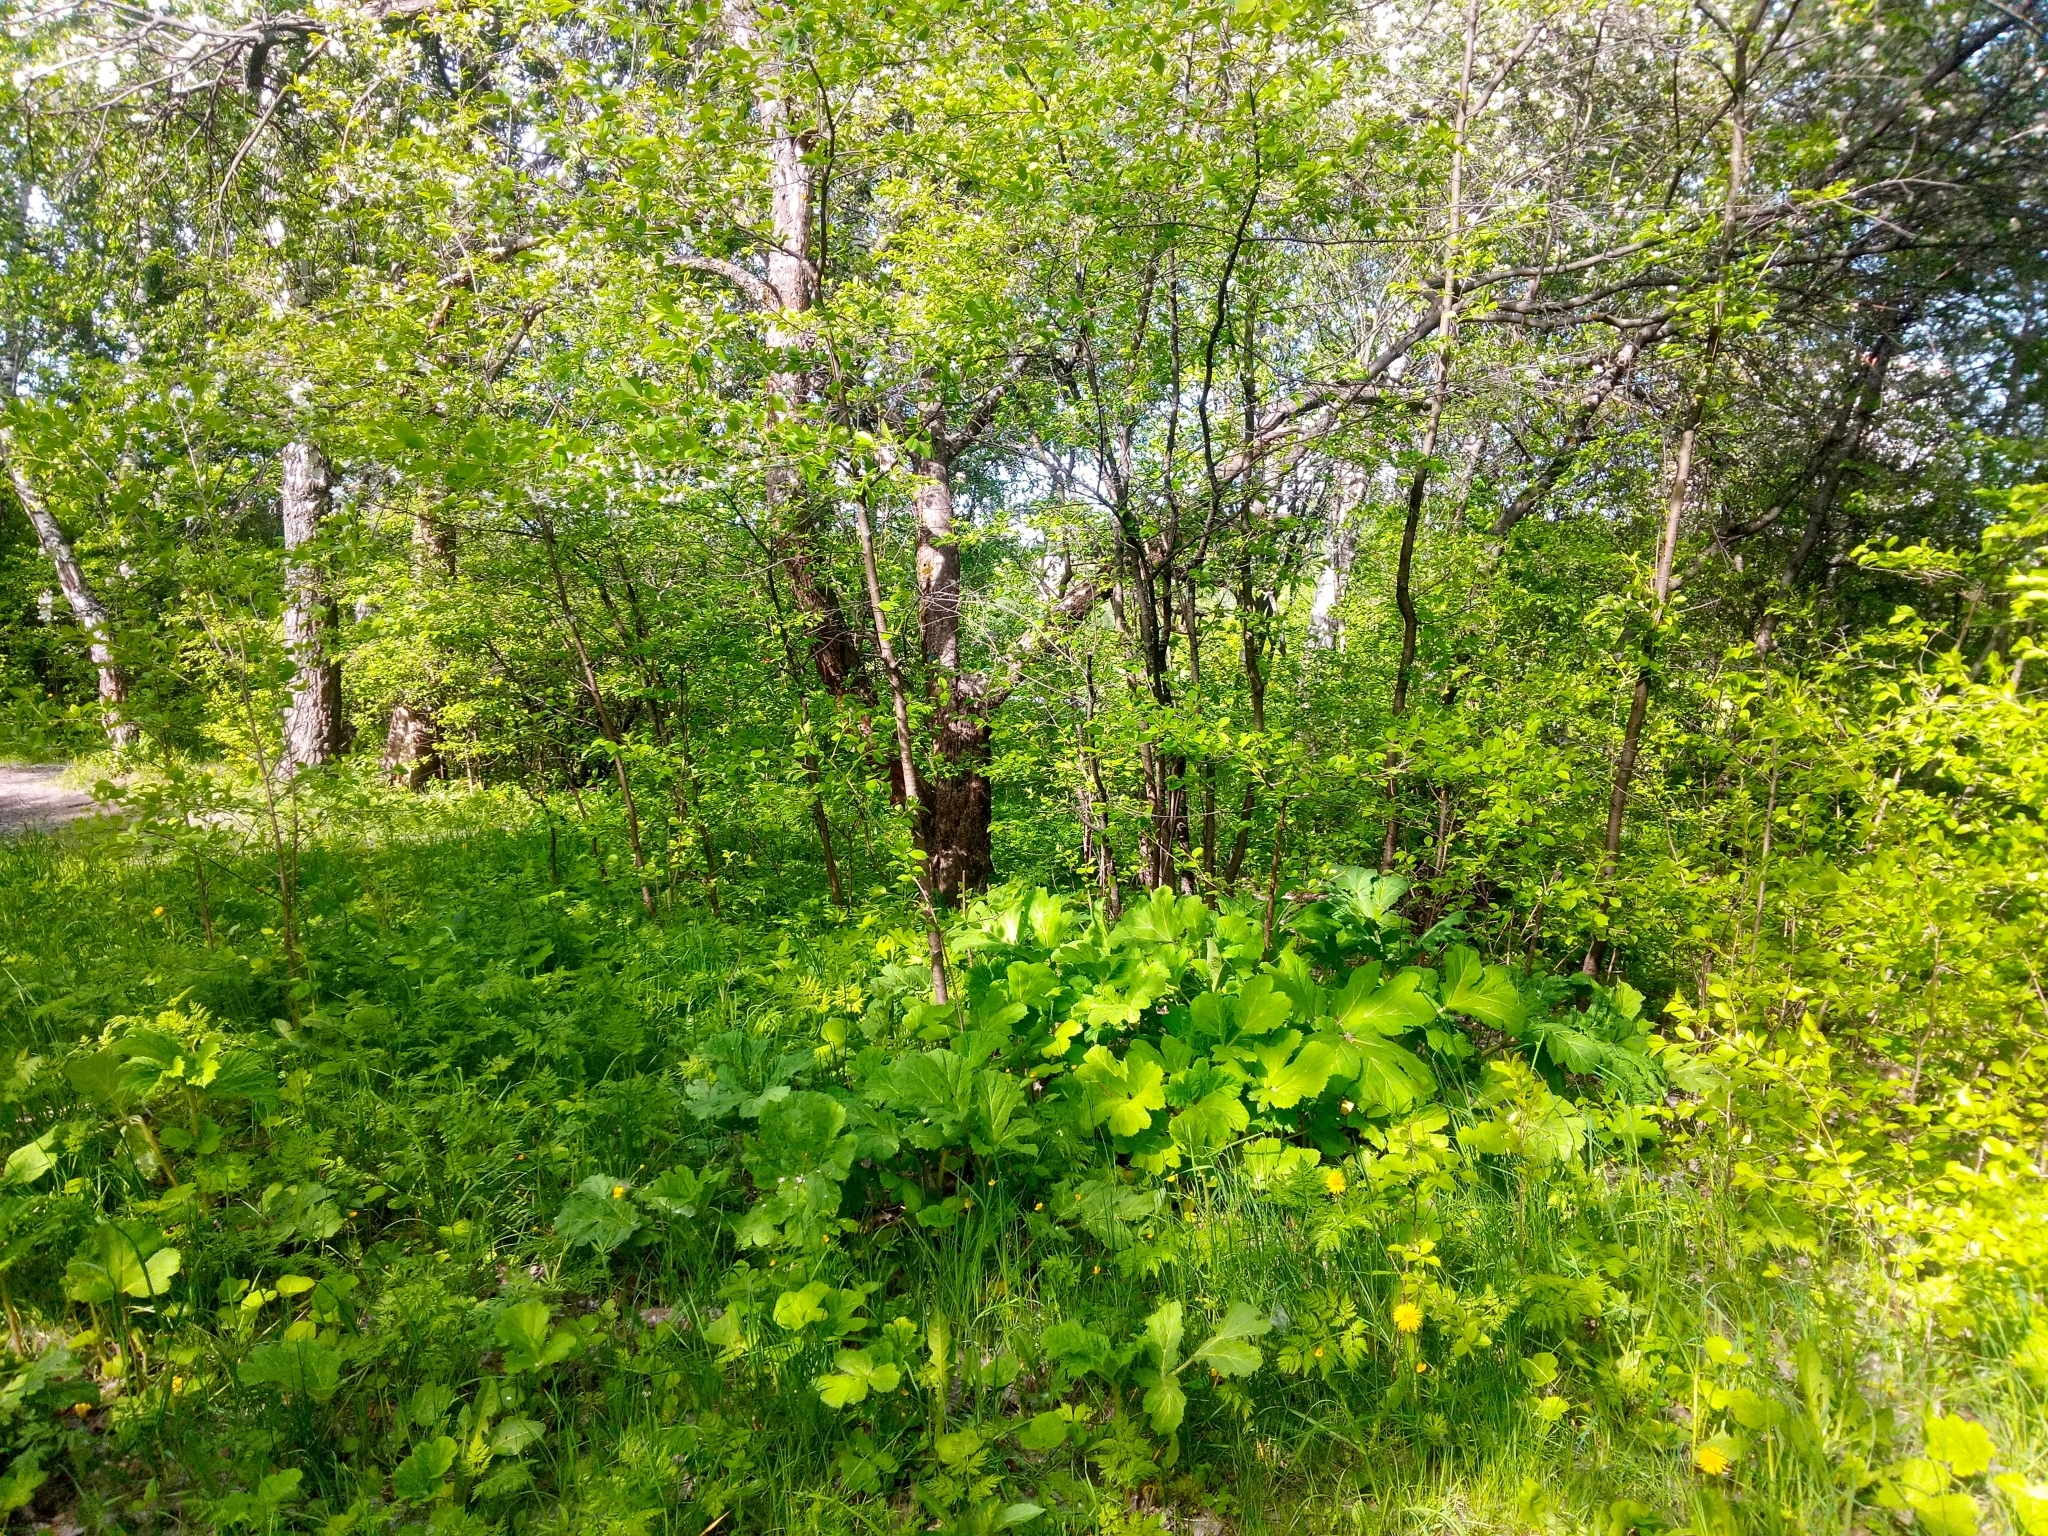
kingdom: Plantae
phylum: Tracheophyta
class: Magnoliopsida
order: Apiales
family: Apiaceae
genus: Heracleum
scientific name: Heracleum sosnowskyi
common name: Sosnowsky's hogweed
